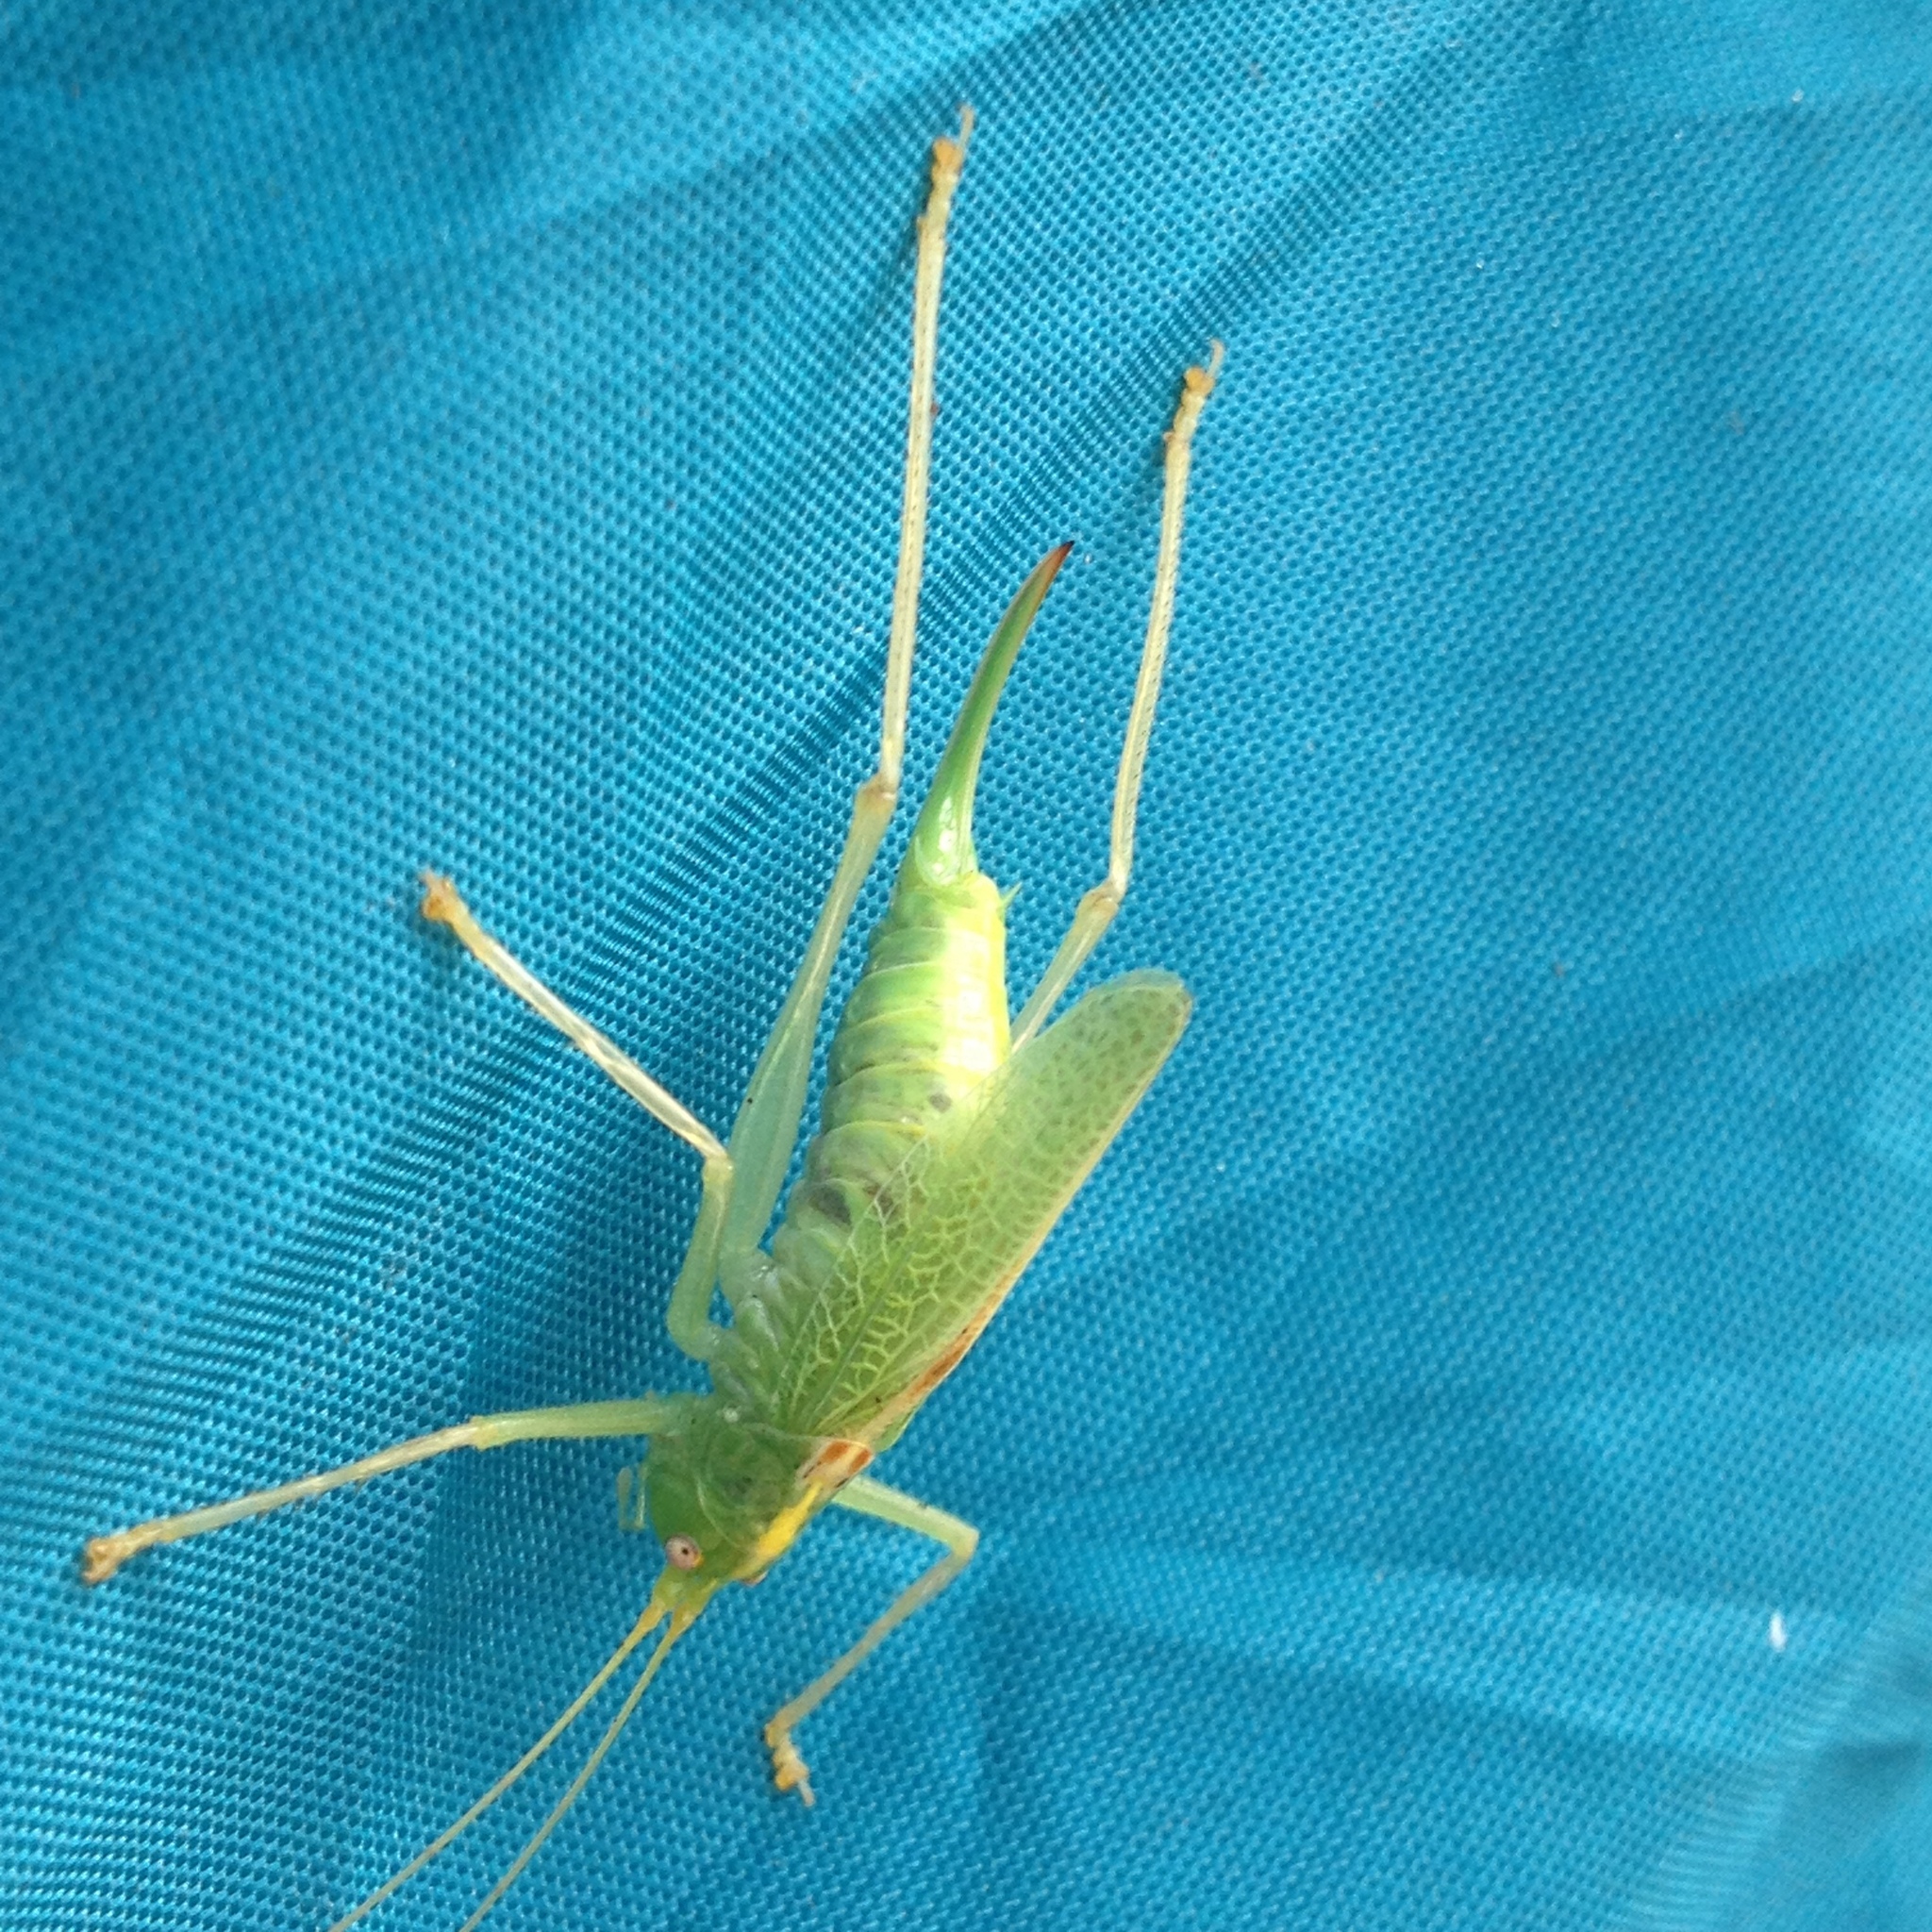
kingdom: Animalia
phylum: Arthropoda
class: Insecta
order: Orthoptera
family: Tettigoniidae
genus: Meconema
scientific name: Meconema thalassinum
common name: Oak bush-cricket
